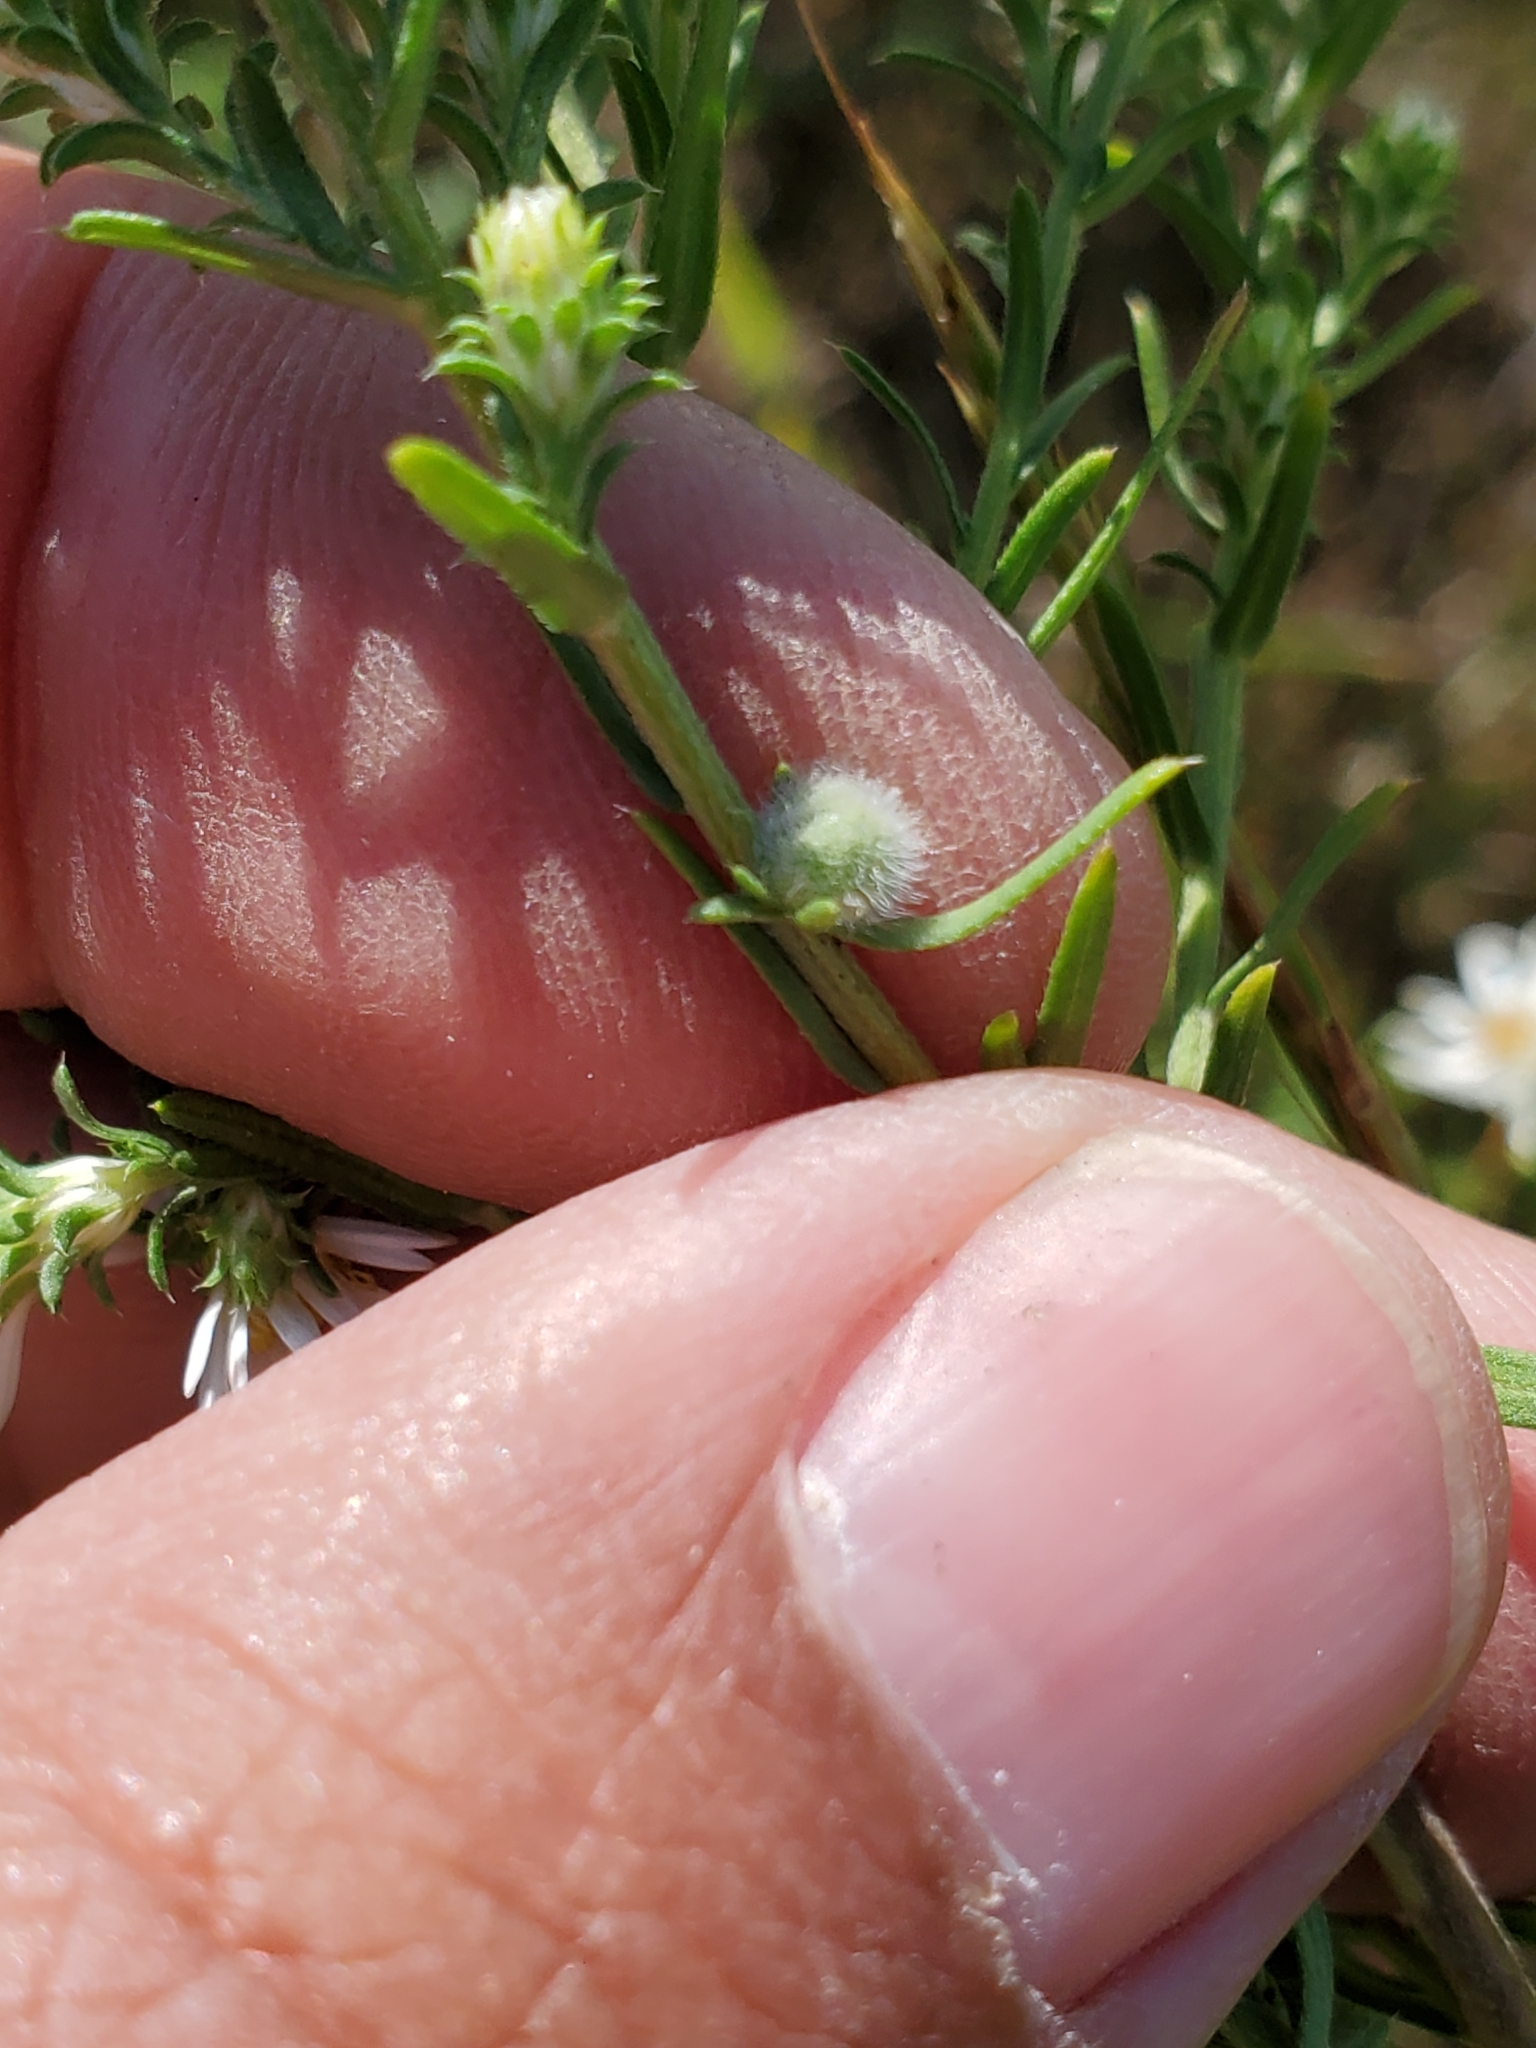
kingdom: Animalia
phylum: Arthropoda
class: Insecta
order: Diptera
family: Cecidomyiidae
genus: Rhopalomyia
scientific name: Rhopalomyia gemmaria
